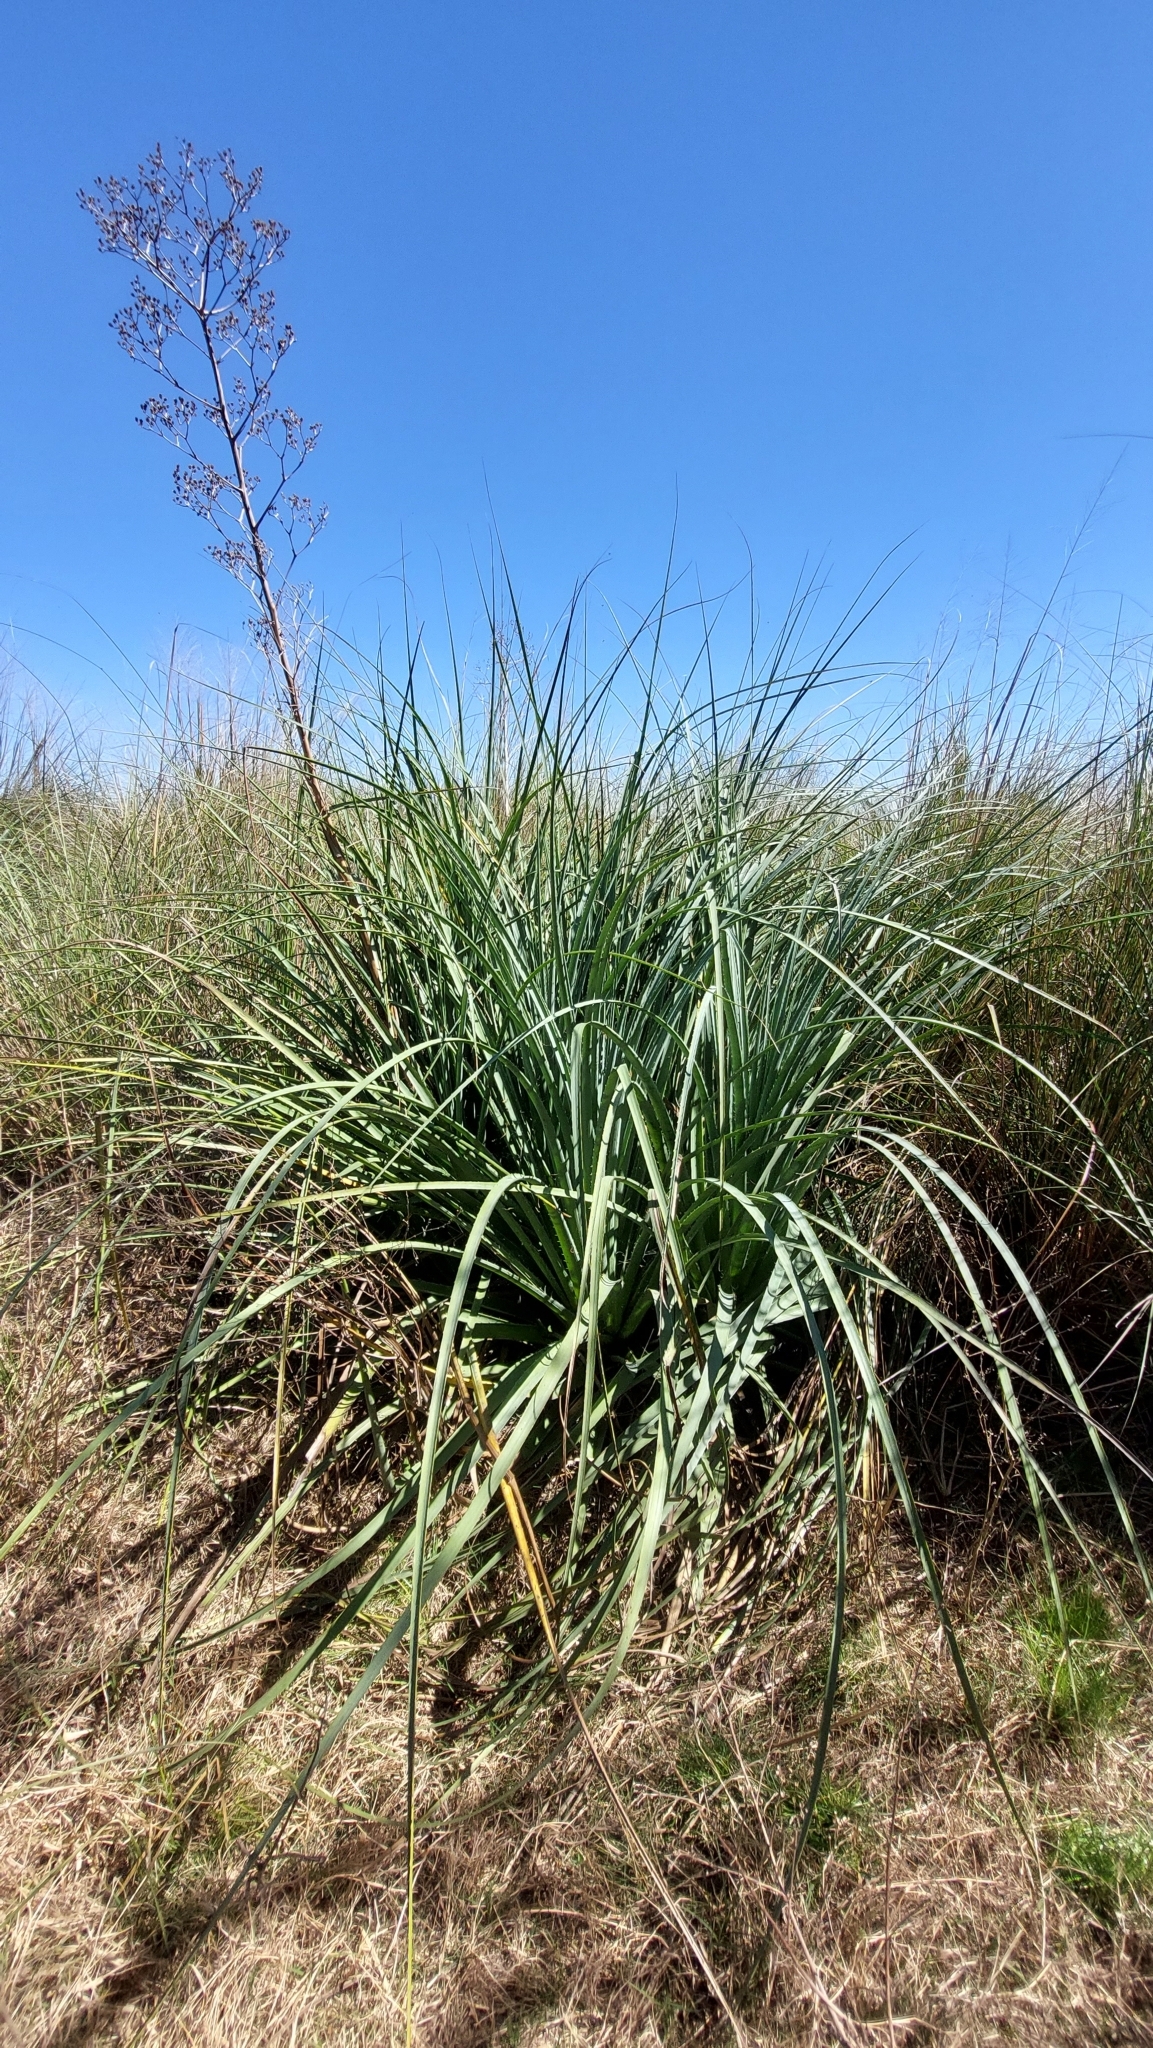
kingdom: Plantae
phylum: Tracheophyta
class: Magnoliopsida
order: Apiales
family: Apiaceae
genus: Eryngium
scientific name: Eryngium pandanifolium
